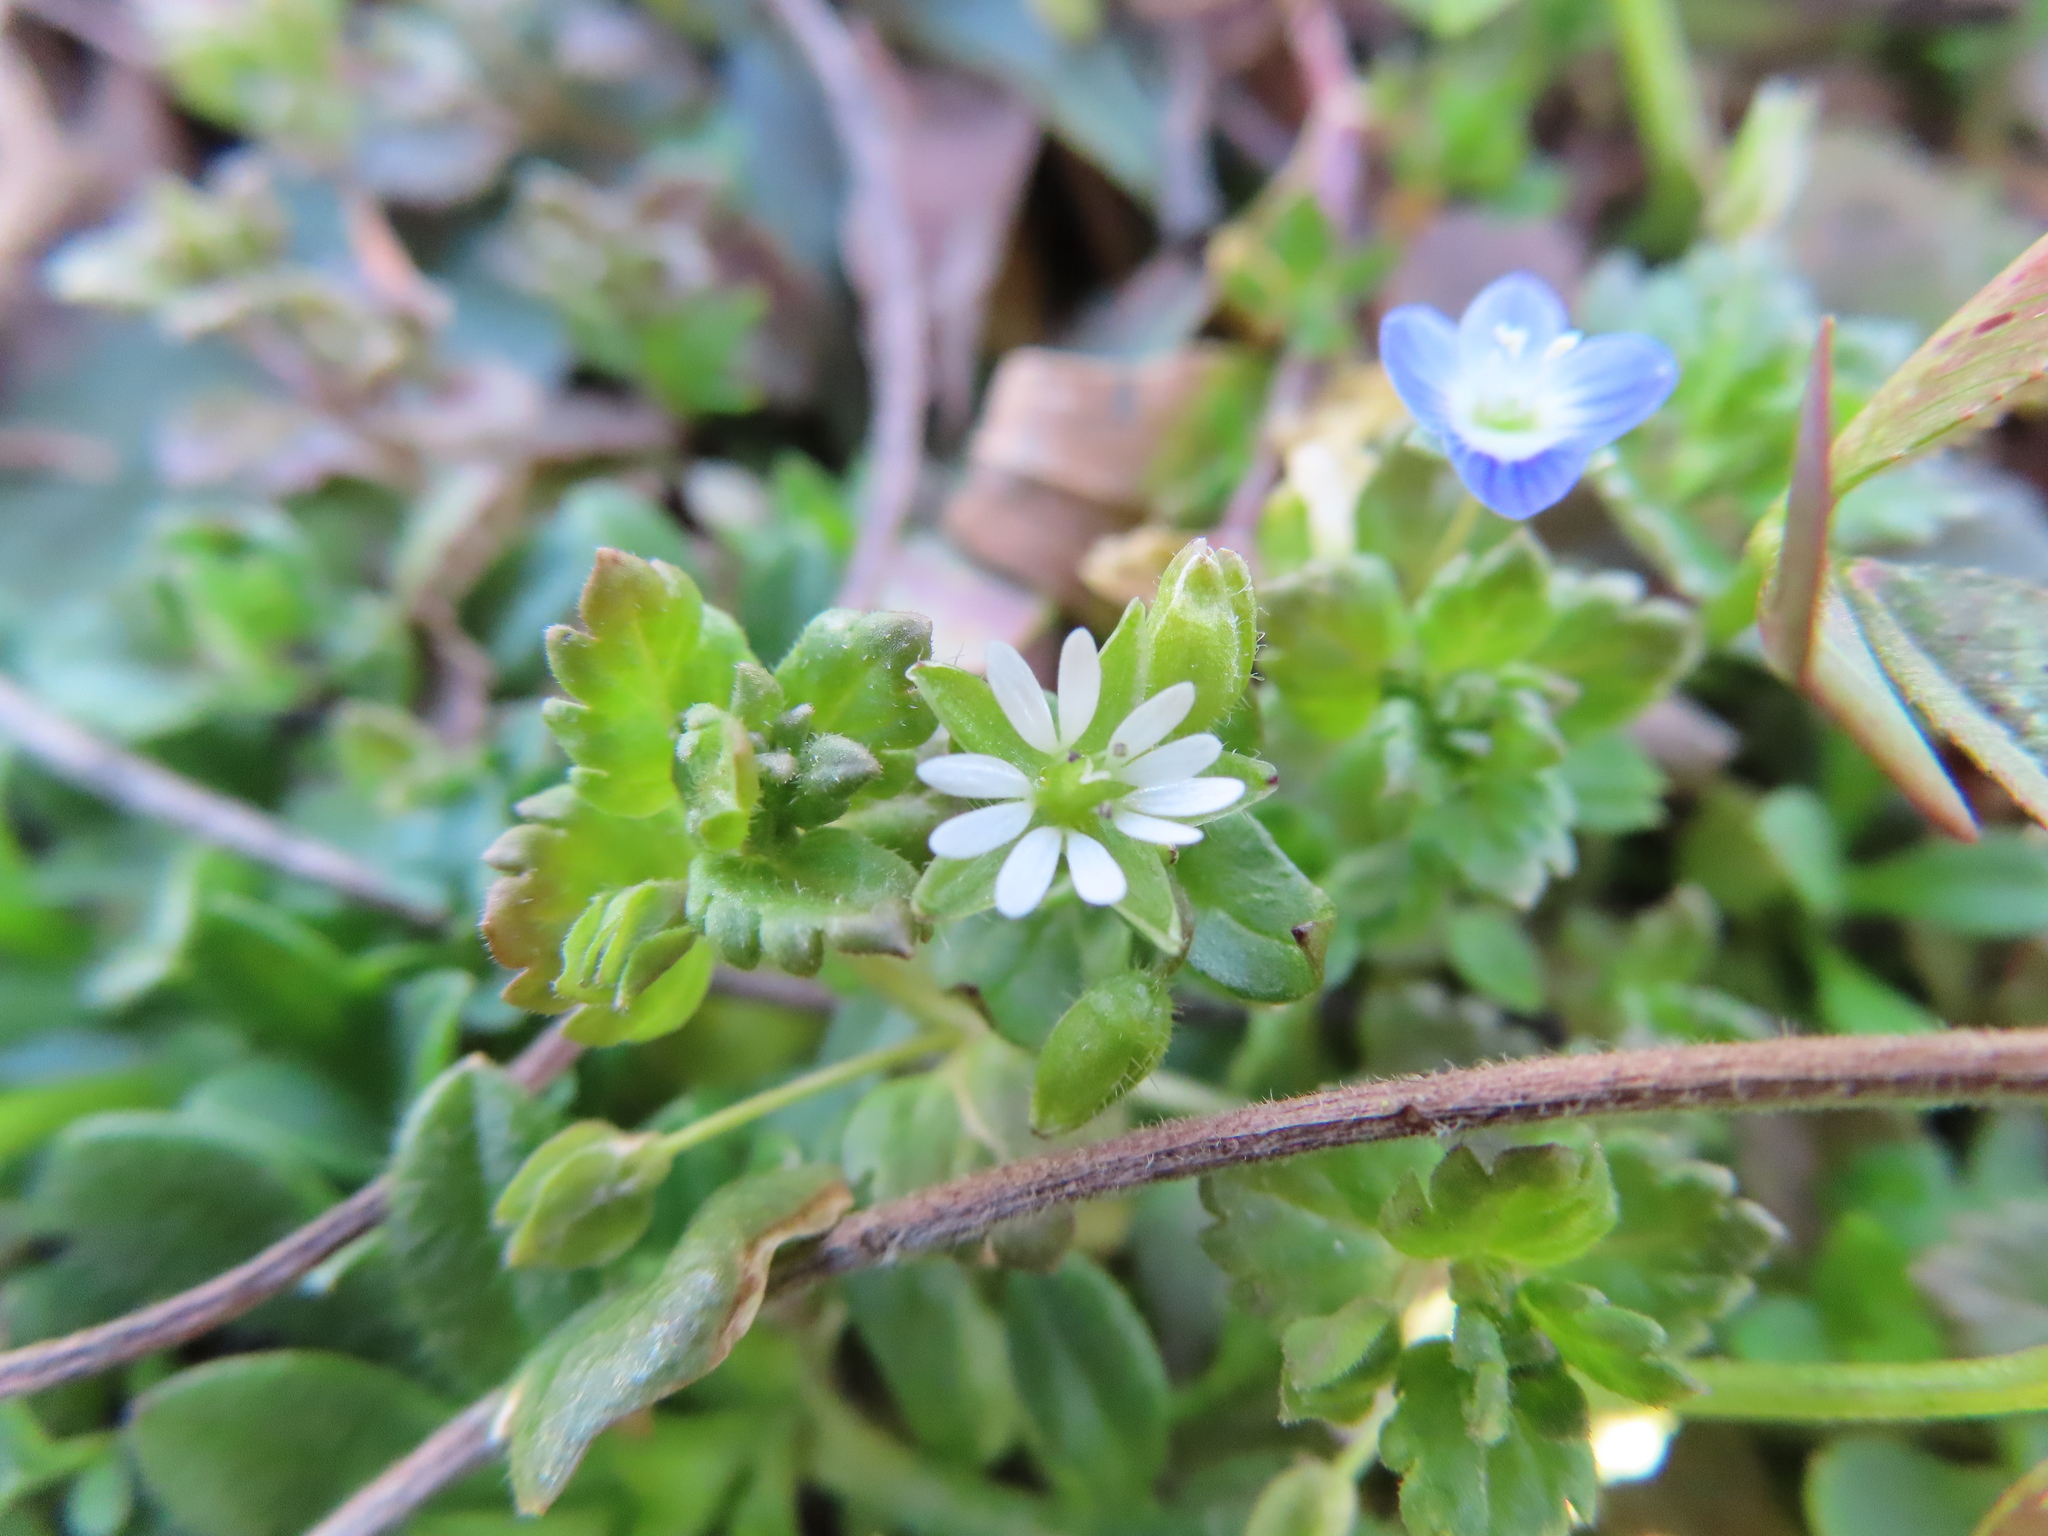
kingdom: Plantae
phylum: Tracheophyta
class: Magnoliopsida
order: Lamiales
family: Plantaginaceae
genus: Veronica
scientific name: Veronica persica
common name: Common field-speedwell
